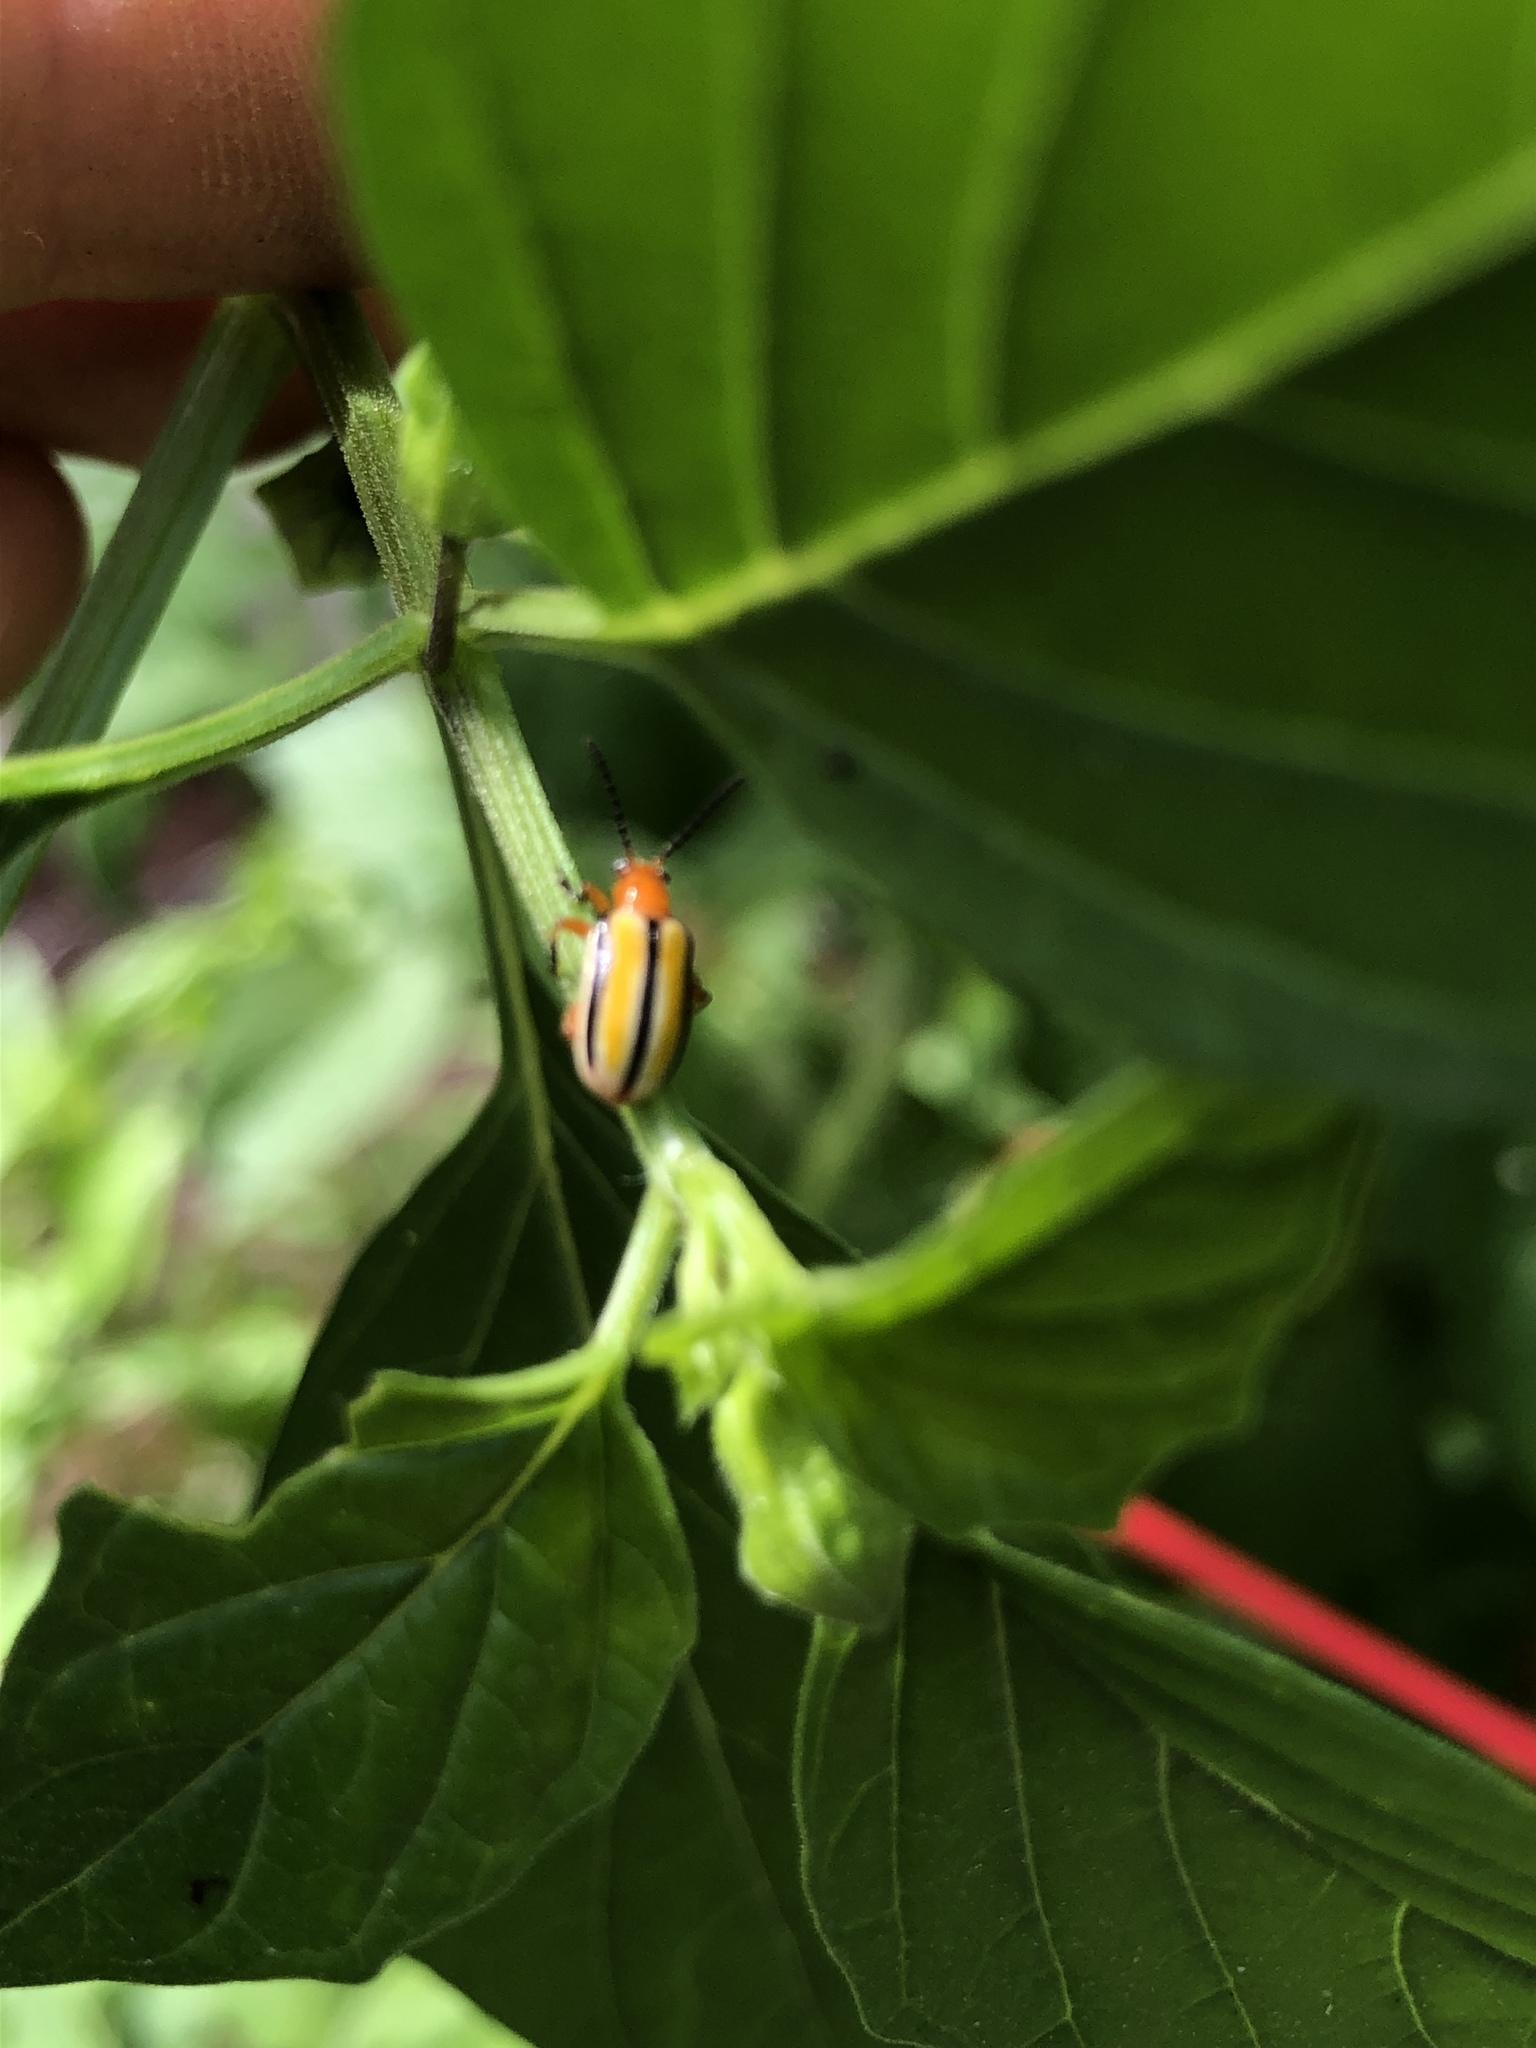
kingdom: Animalia
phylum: Arthropoda
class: Insecta
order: Coleoptera
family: Chrysomelidae
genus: Lema
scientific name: Lema daturaphila
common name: Leaf beetle
